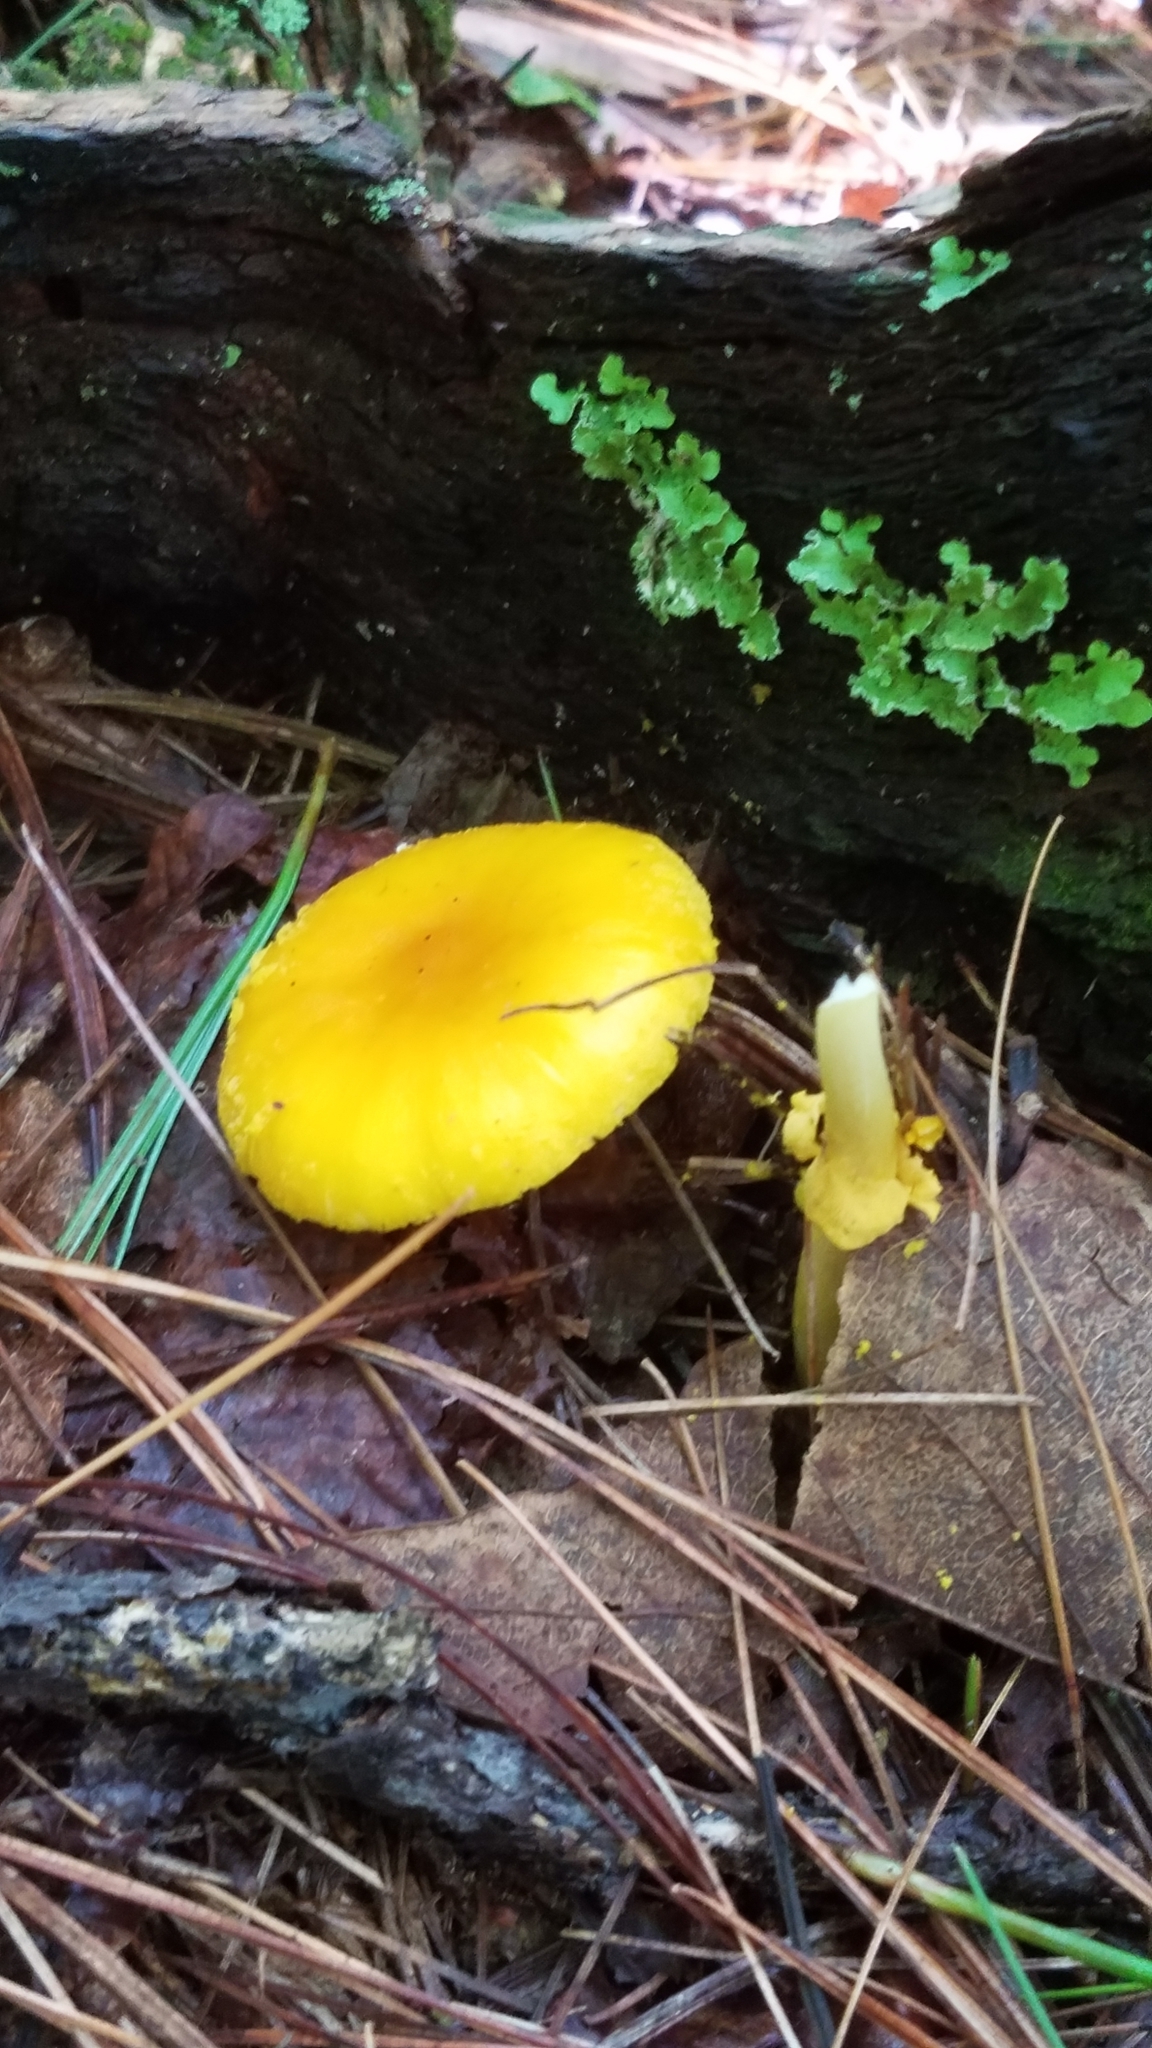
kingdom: Fungi
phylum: Basidiomycota
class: Agaricomycetes
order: Agaricales
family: Amanitaceae
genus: Amanita
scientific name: Amanita flavoconia
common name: Yellow patches
